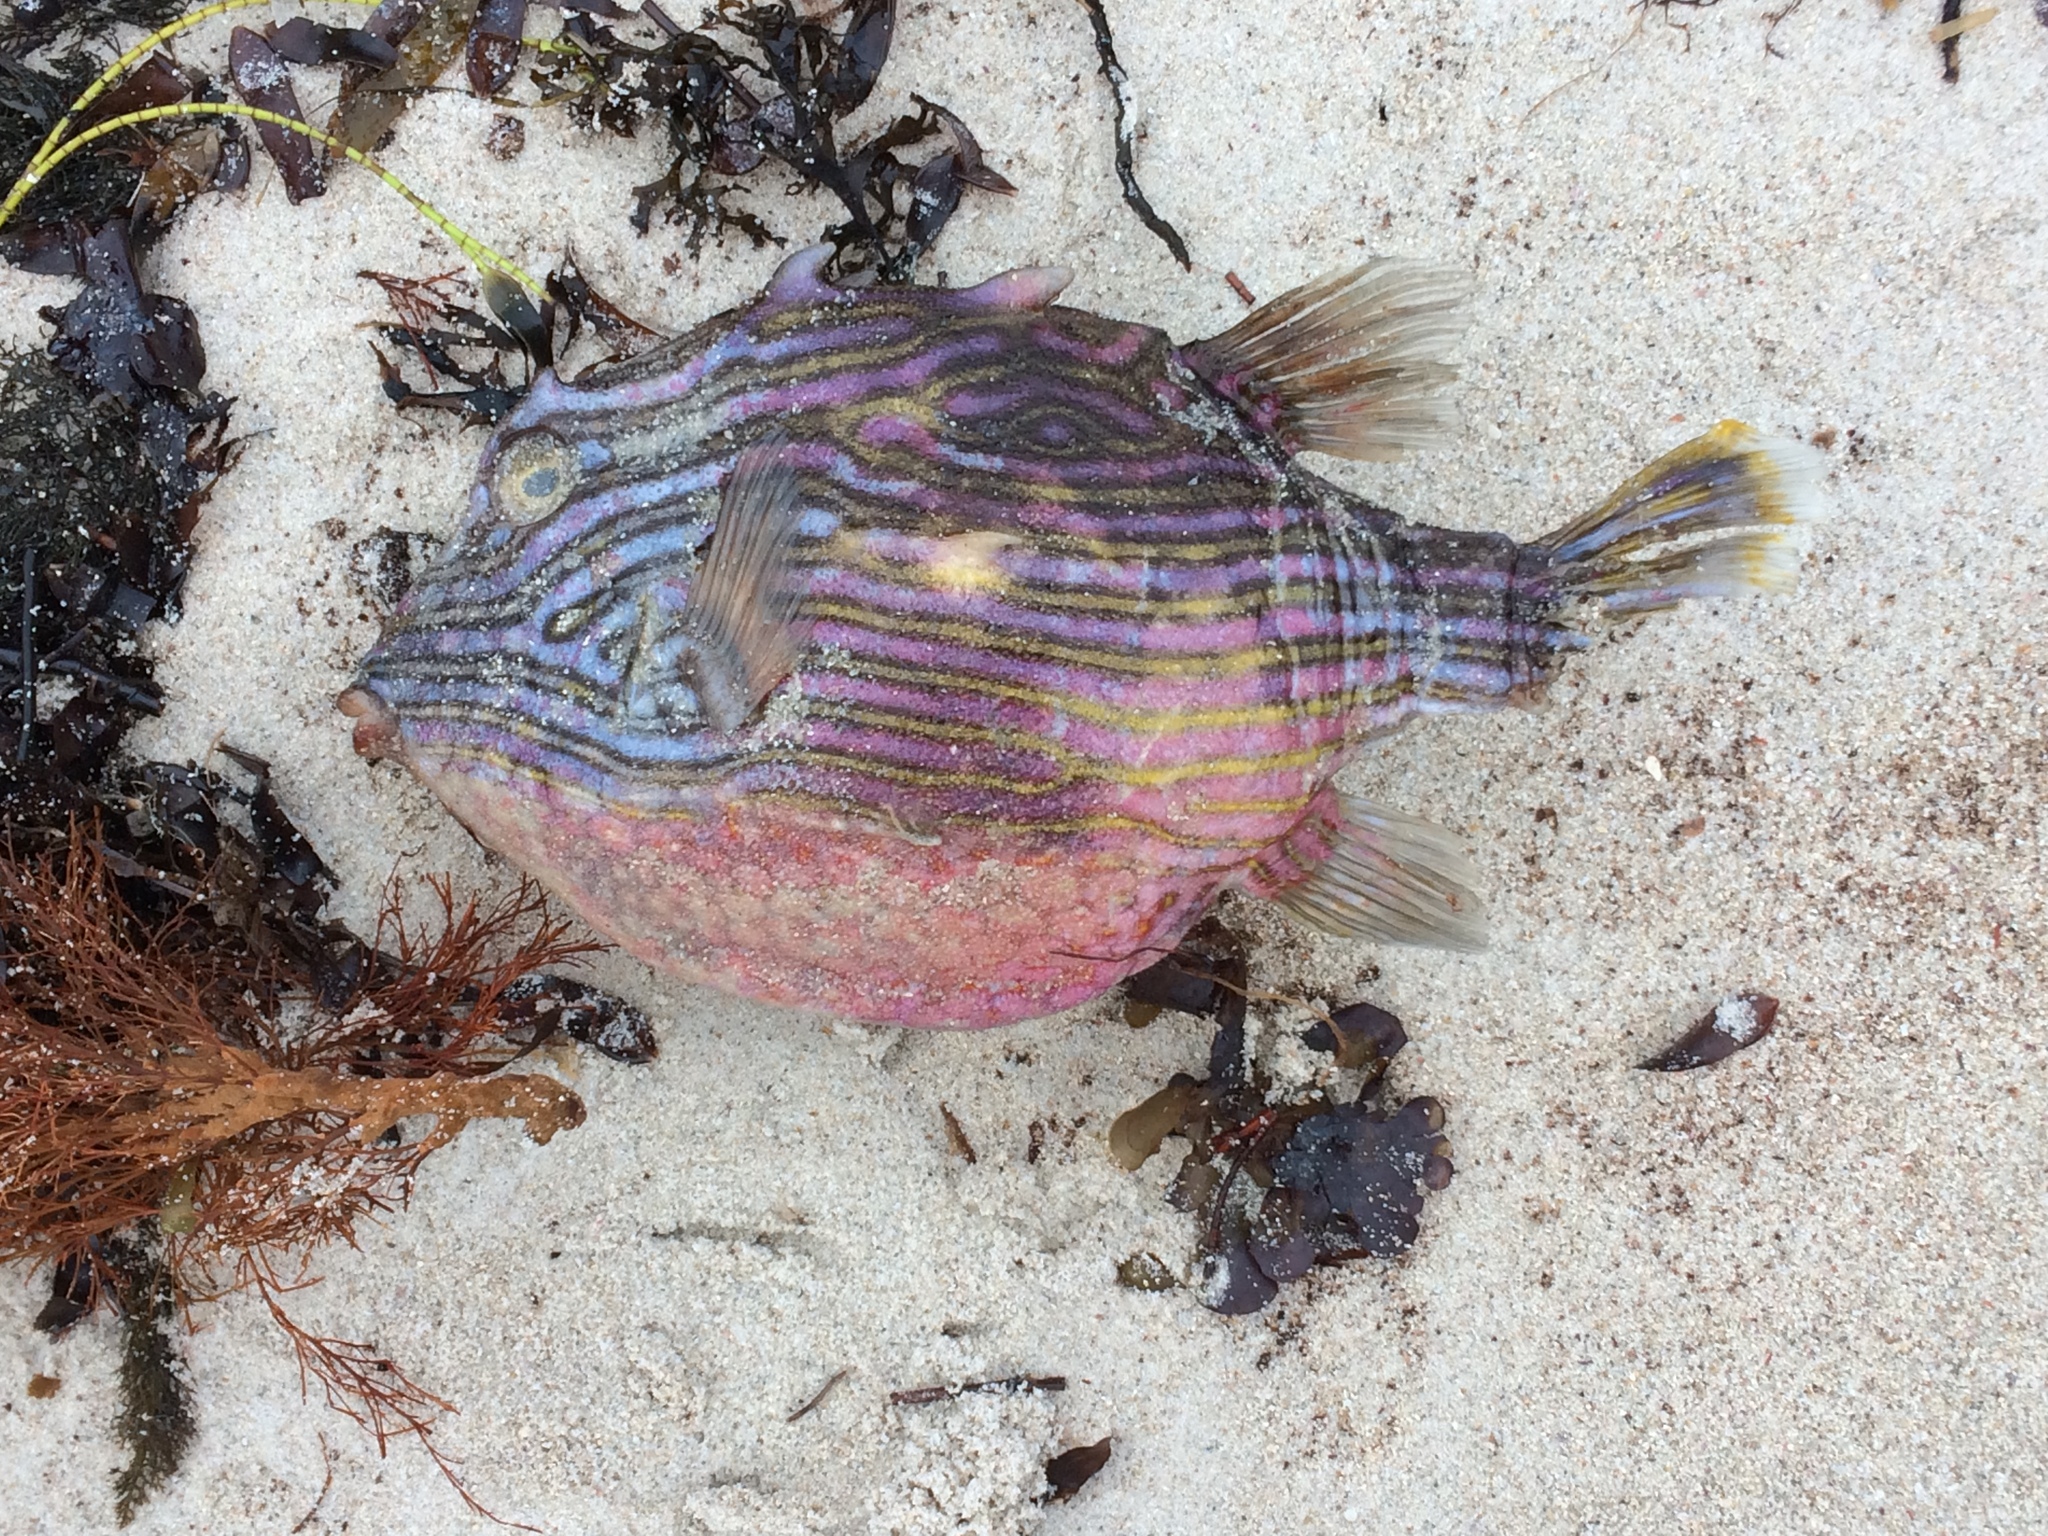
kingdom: Animalia
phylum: Chordata
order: Tetraodontiformes
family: Aracanidae
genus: Aracana
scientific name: Aracana aurita
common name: Shaw’s cowfish
